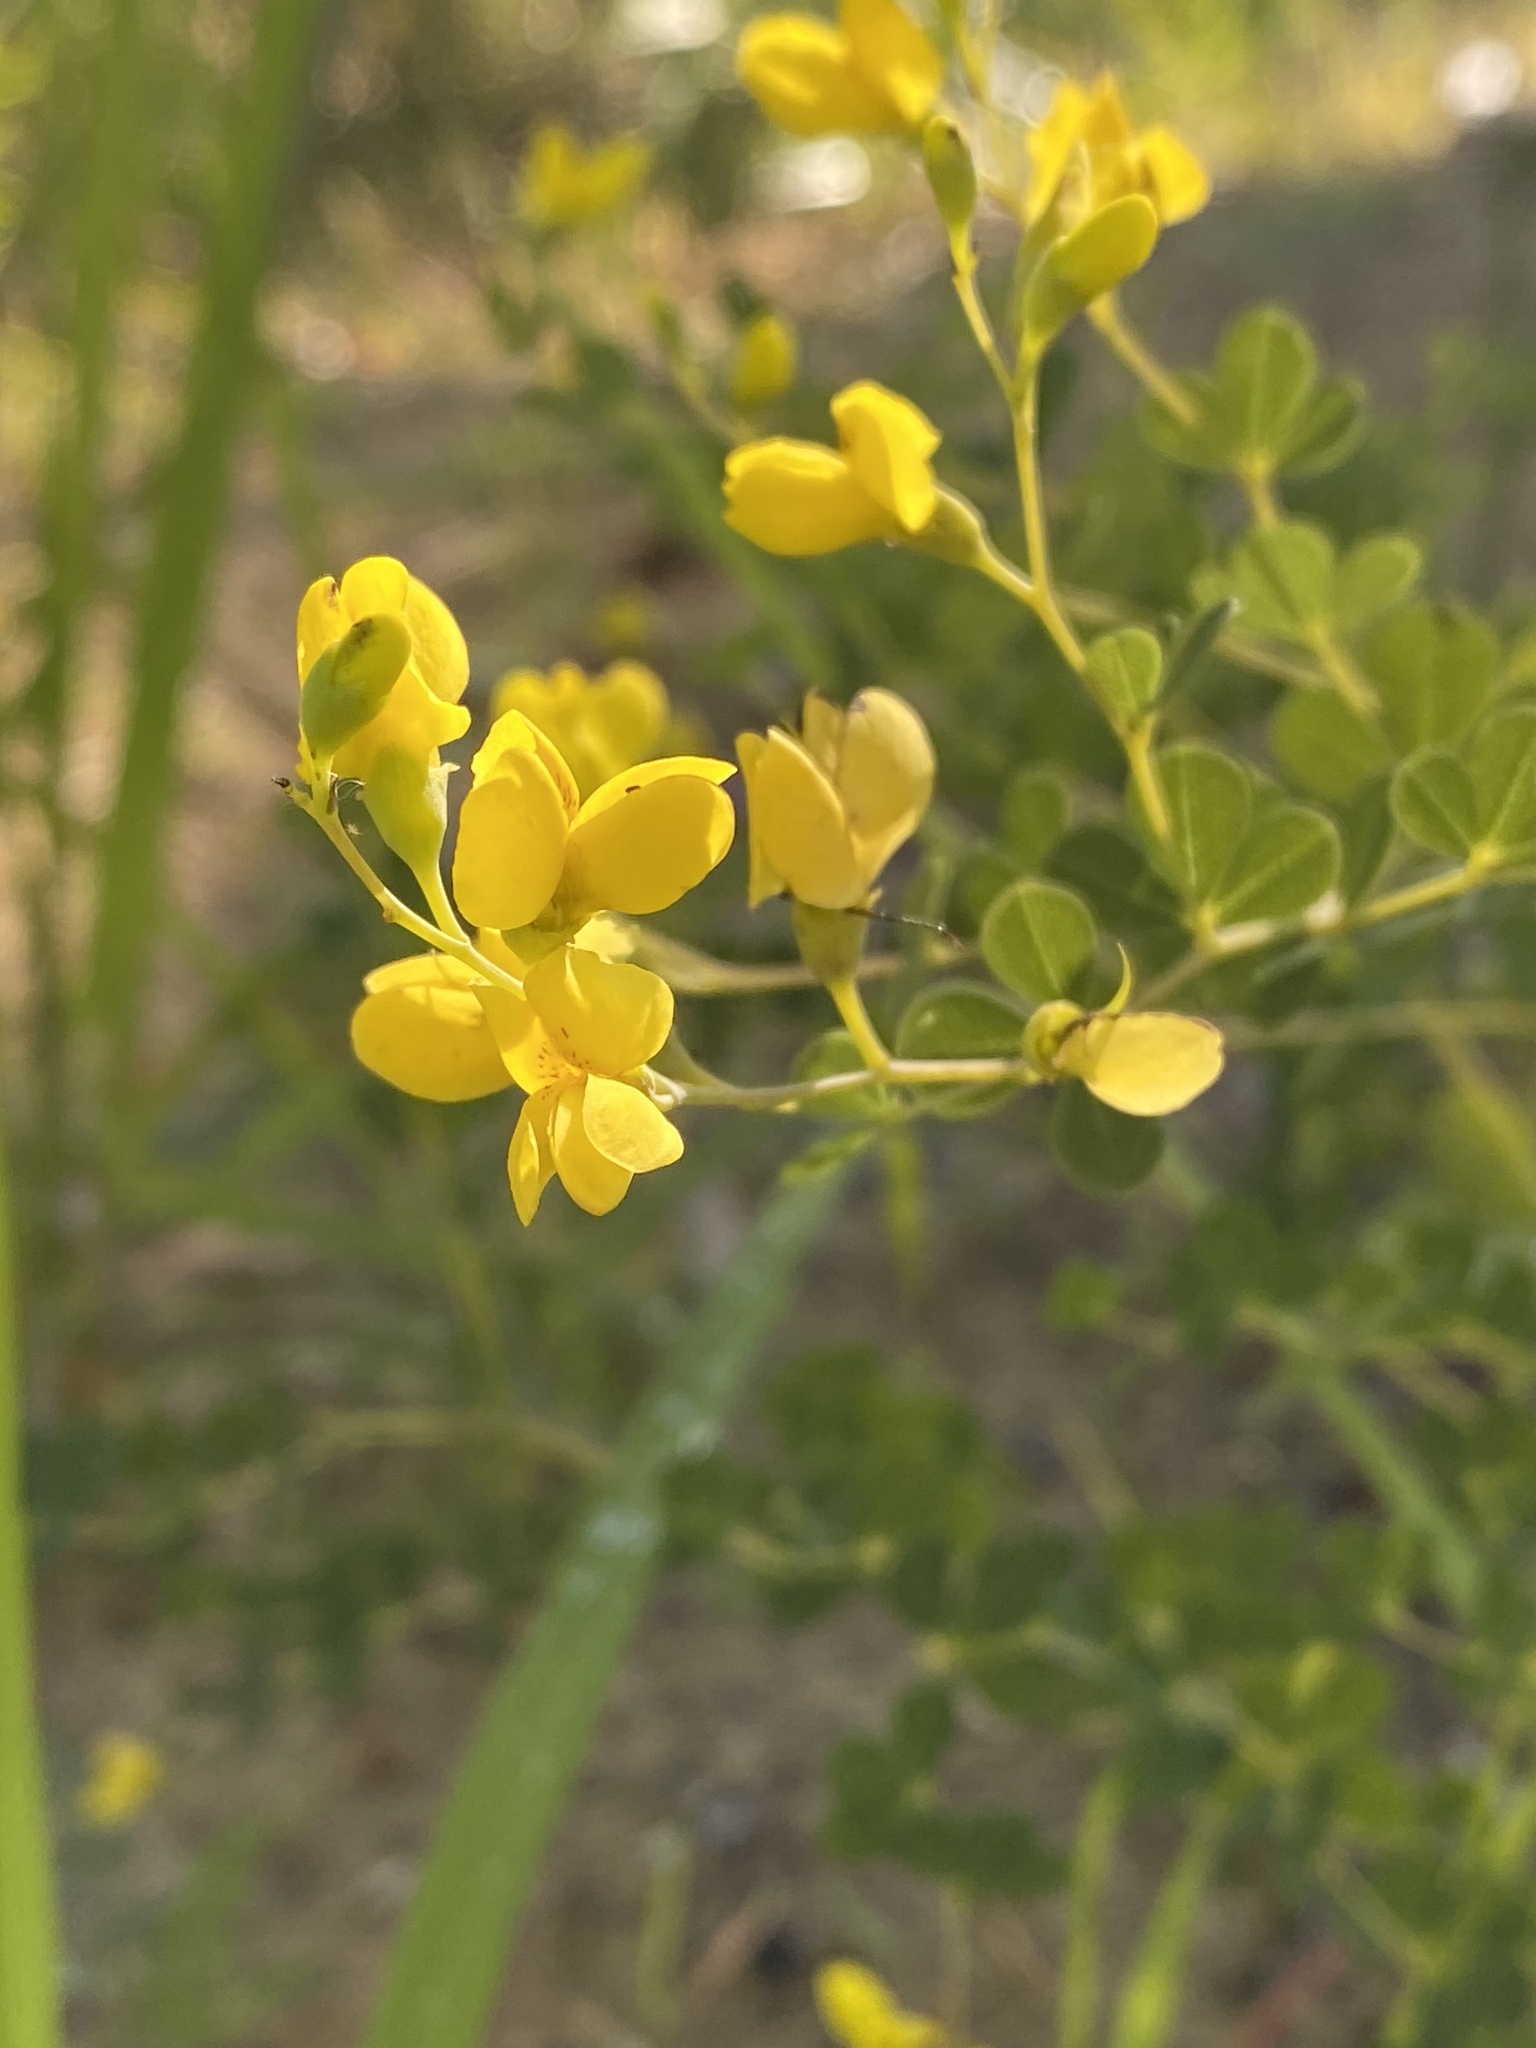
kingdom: Plantae
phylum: Tracheophyta
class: Magnoliopsida
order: Fabales
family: Fabaceae
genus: Baptisia
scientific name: Baptisia tinctoria
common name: Wild indigo
